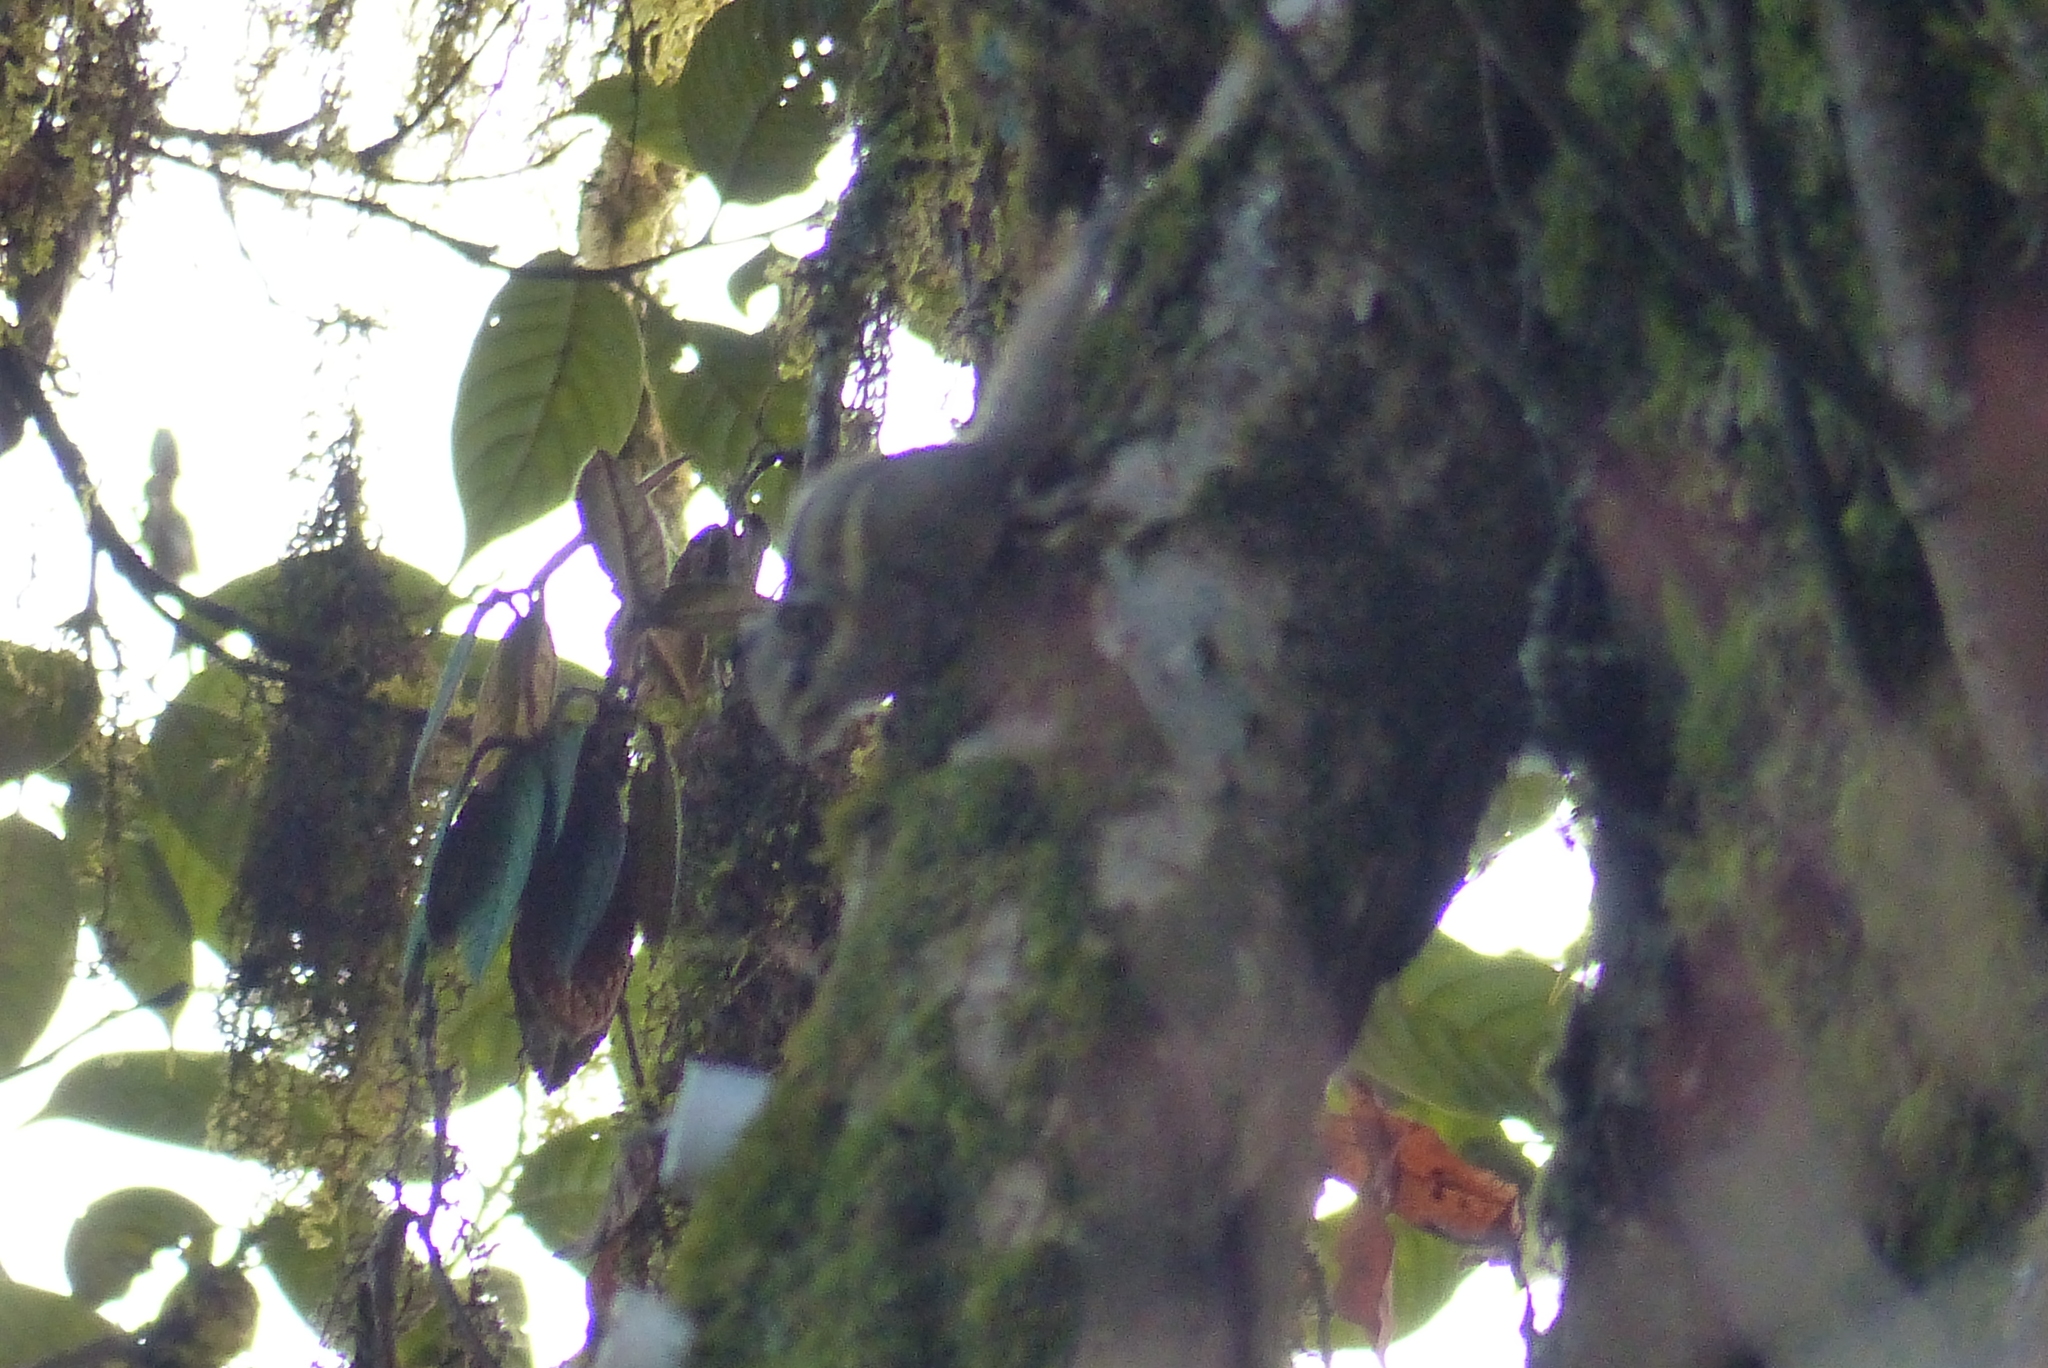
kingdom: Animalia
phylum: Chordata
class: Mammalia
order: Rodentia
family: Sciuridae
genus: Tamiops
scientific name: Tamiops mcclellandii
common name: Himalayan striped squirrel
